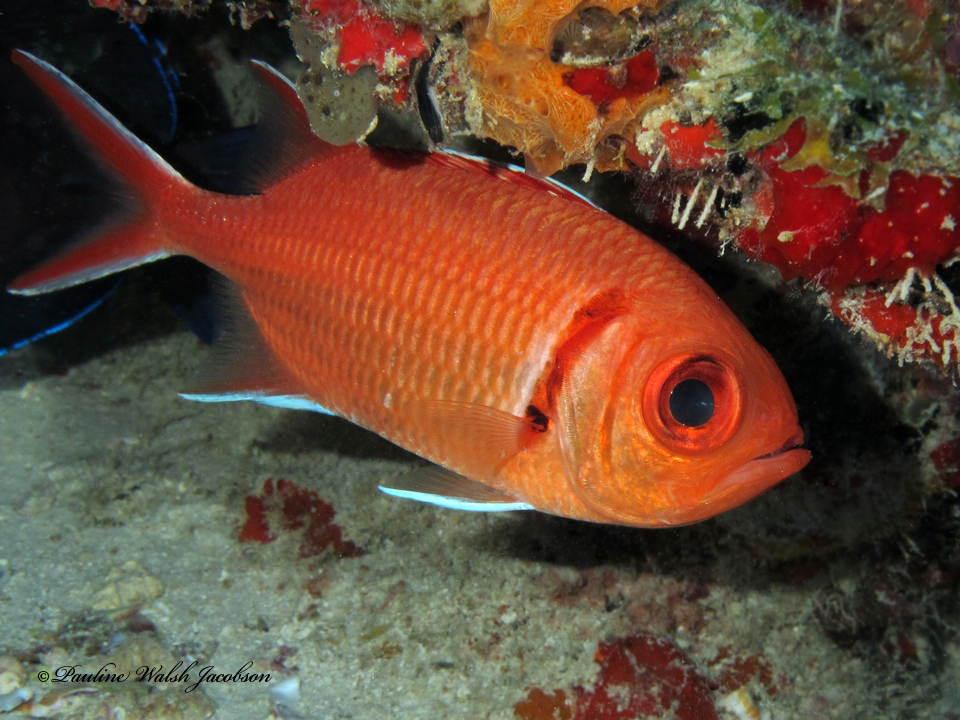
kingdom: Animalia
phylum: Chordata
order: Beryciformes
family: Holocentridae
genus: Myripristis
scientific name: Myripristis jacobus
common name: Blackbar soldierfish
